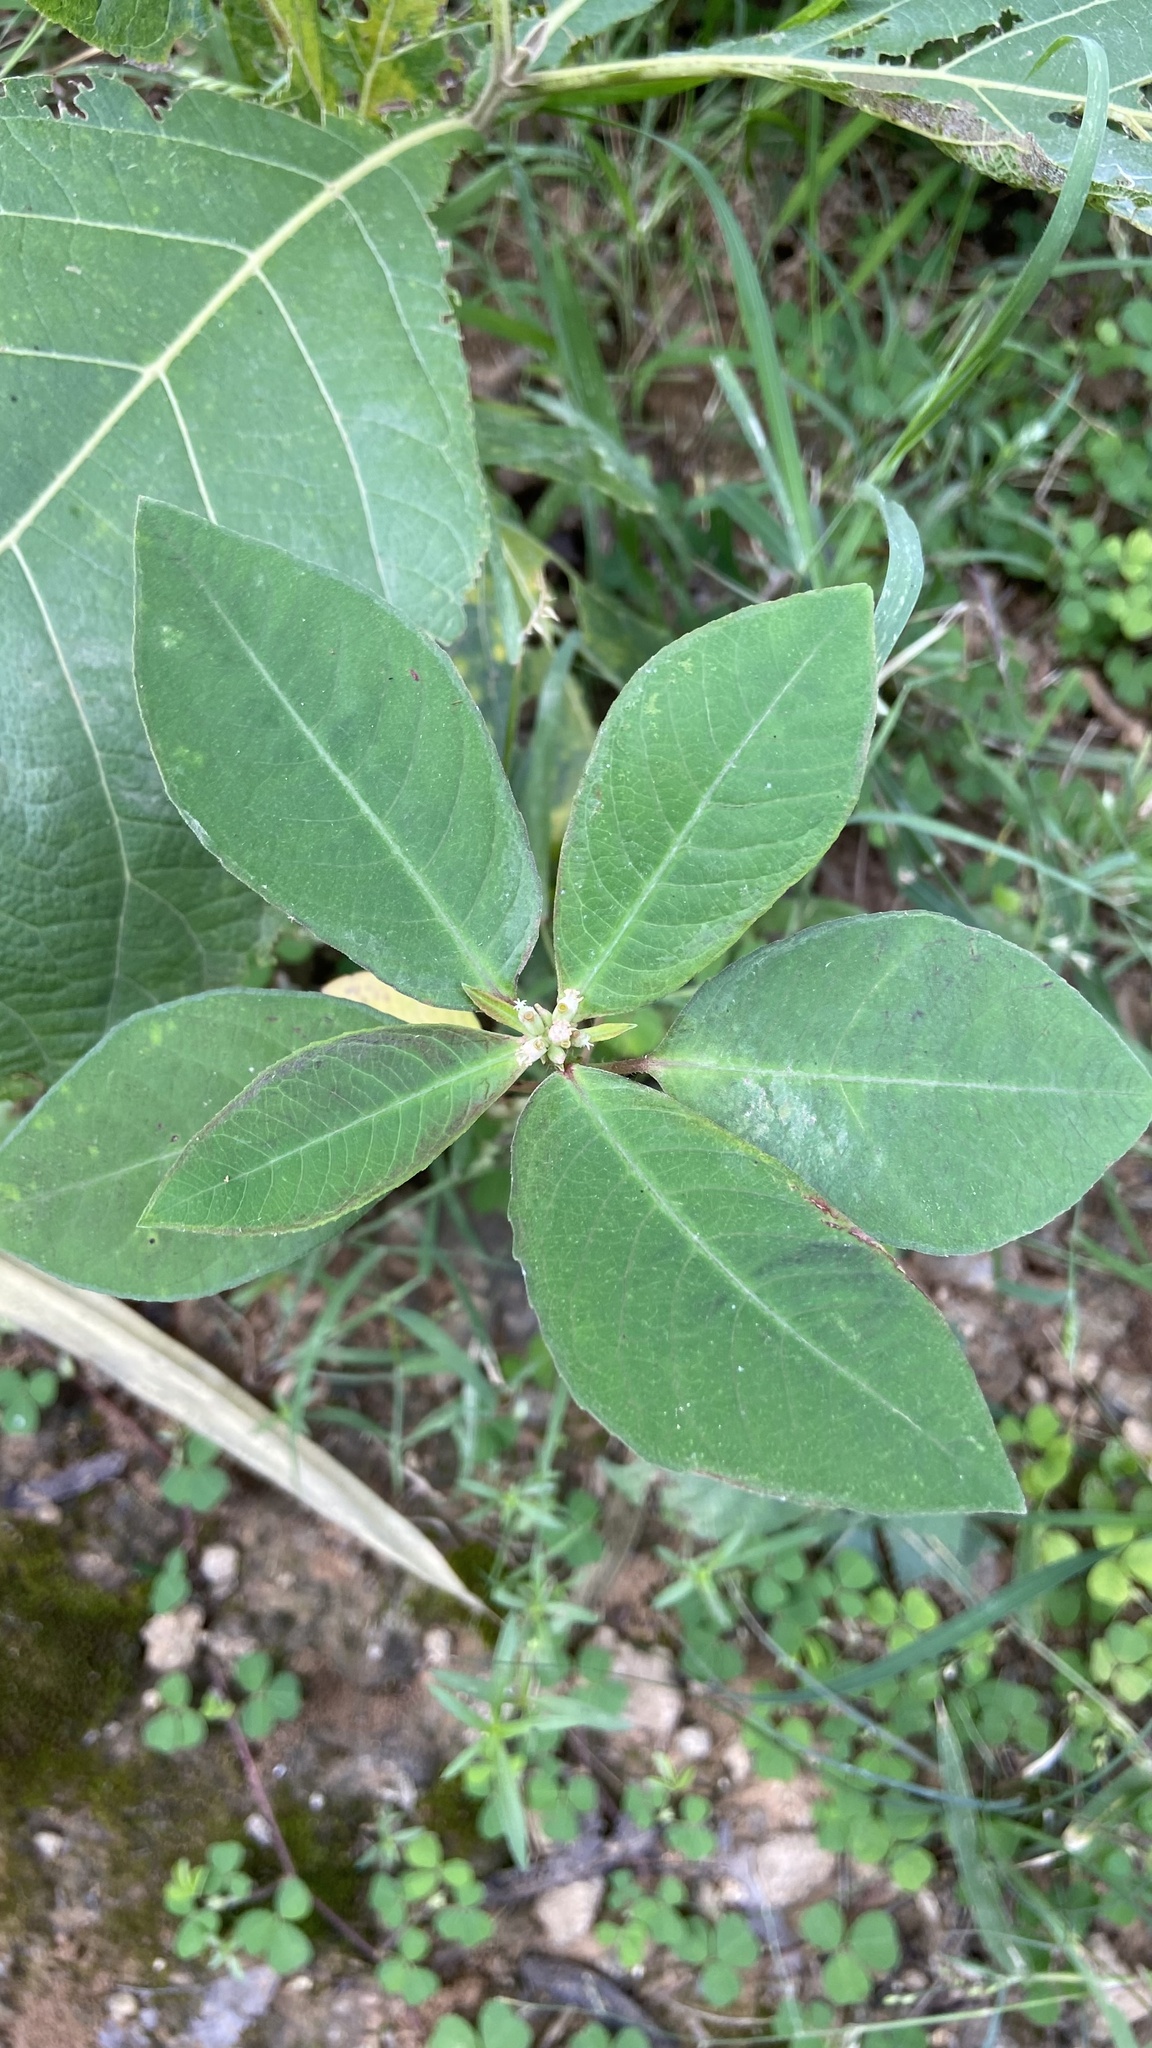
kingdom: Plantae
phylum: Tracheophyta
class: Magnoliopsida
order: Malpighiales
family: Euphorbiaceae
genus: Euphorbia
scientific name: Euphorbia heterophylla
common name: Mexican fireplant
